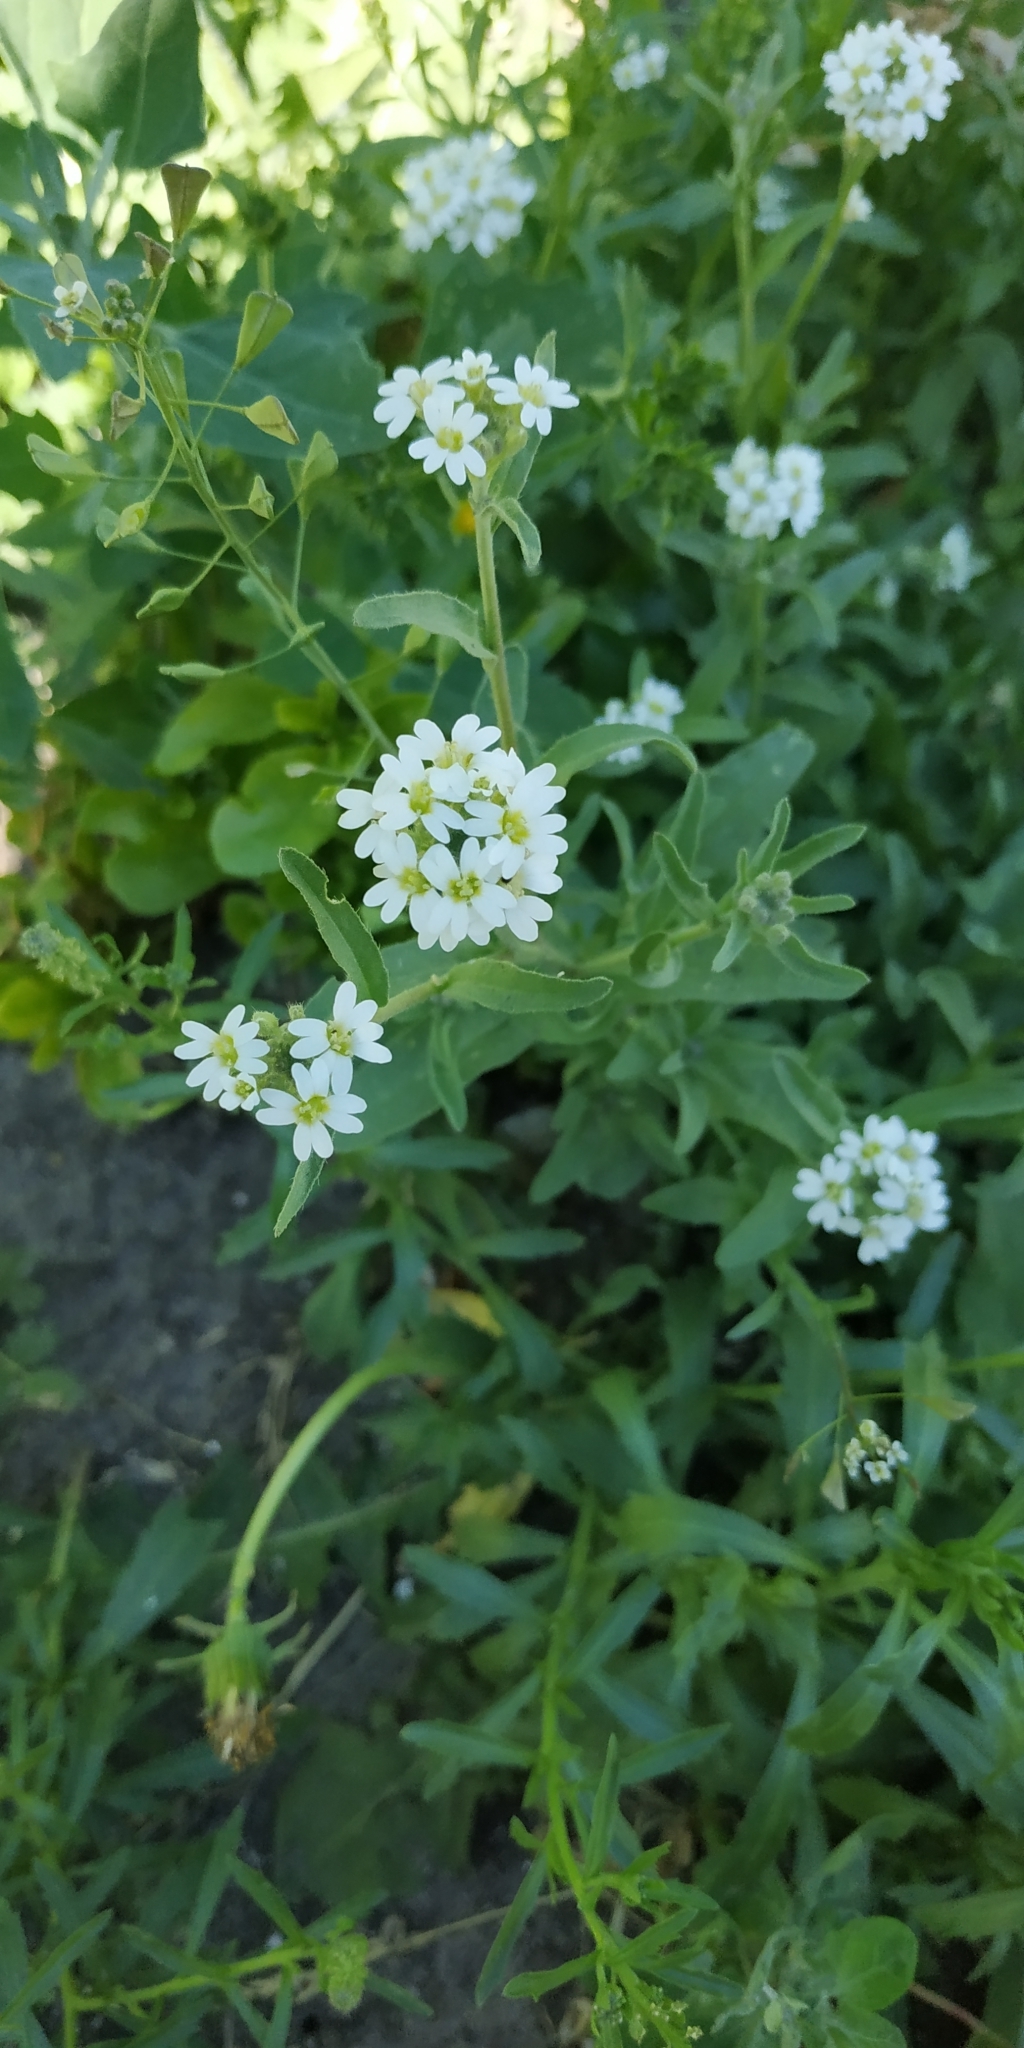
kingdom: Plantae
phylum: Tracheophyta
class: Magnoliopsida
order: Brassicales
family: Brassicaceae
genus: Berteroa
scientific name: Berteroa incana
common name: Hoary alison
